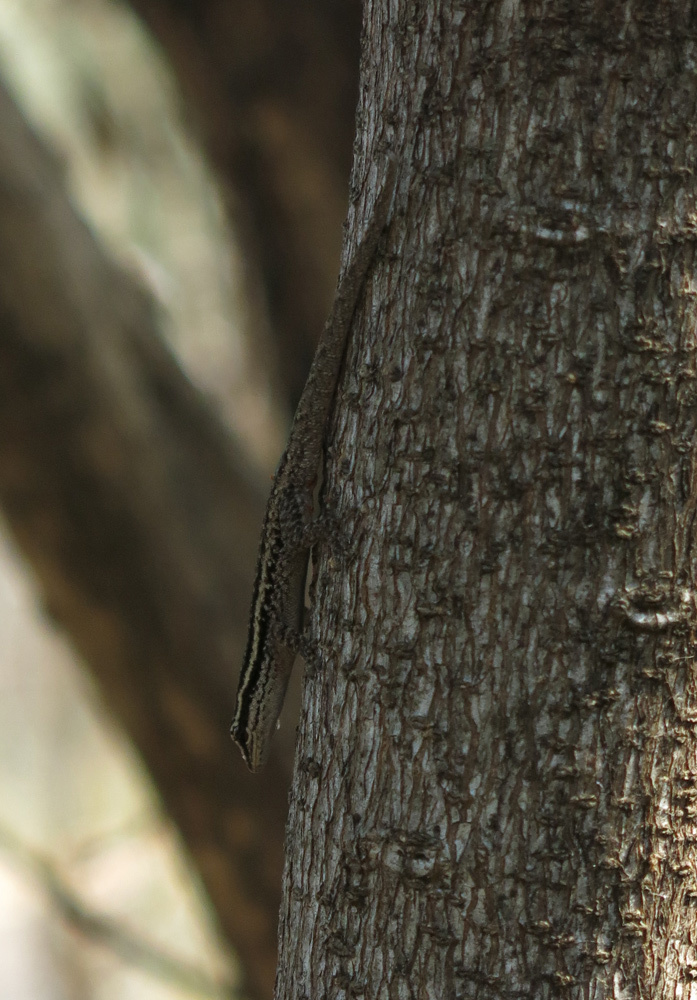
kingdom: Animalia
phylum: Chordata
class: Squamata
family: Gekkonidae
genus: Lygodactylus
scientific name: Lygodactylus capensis
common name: Cape dwarf gecko
